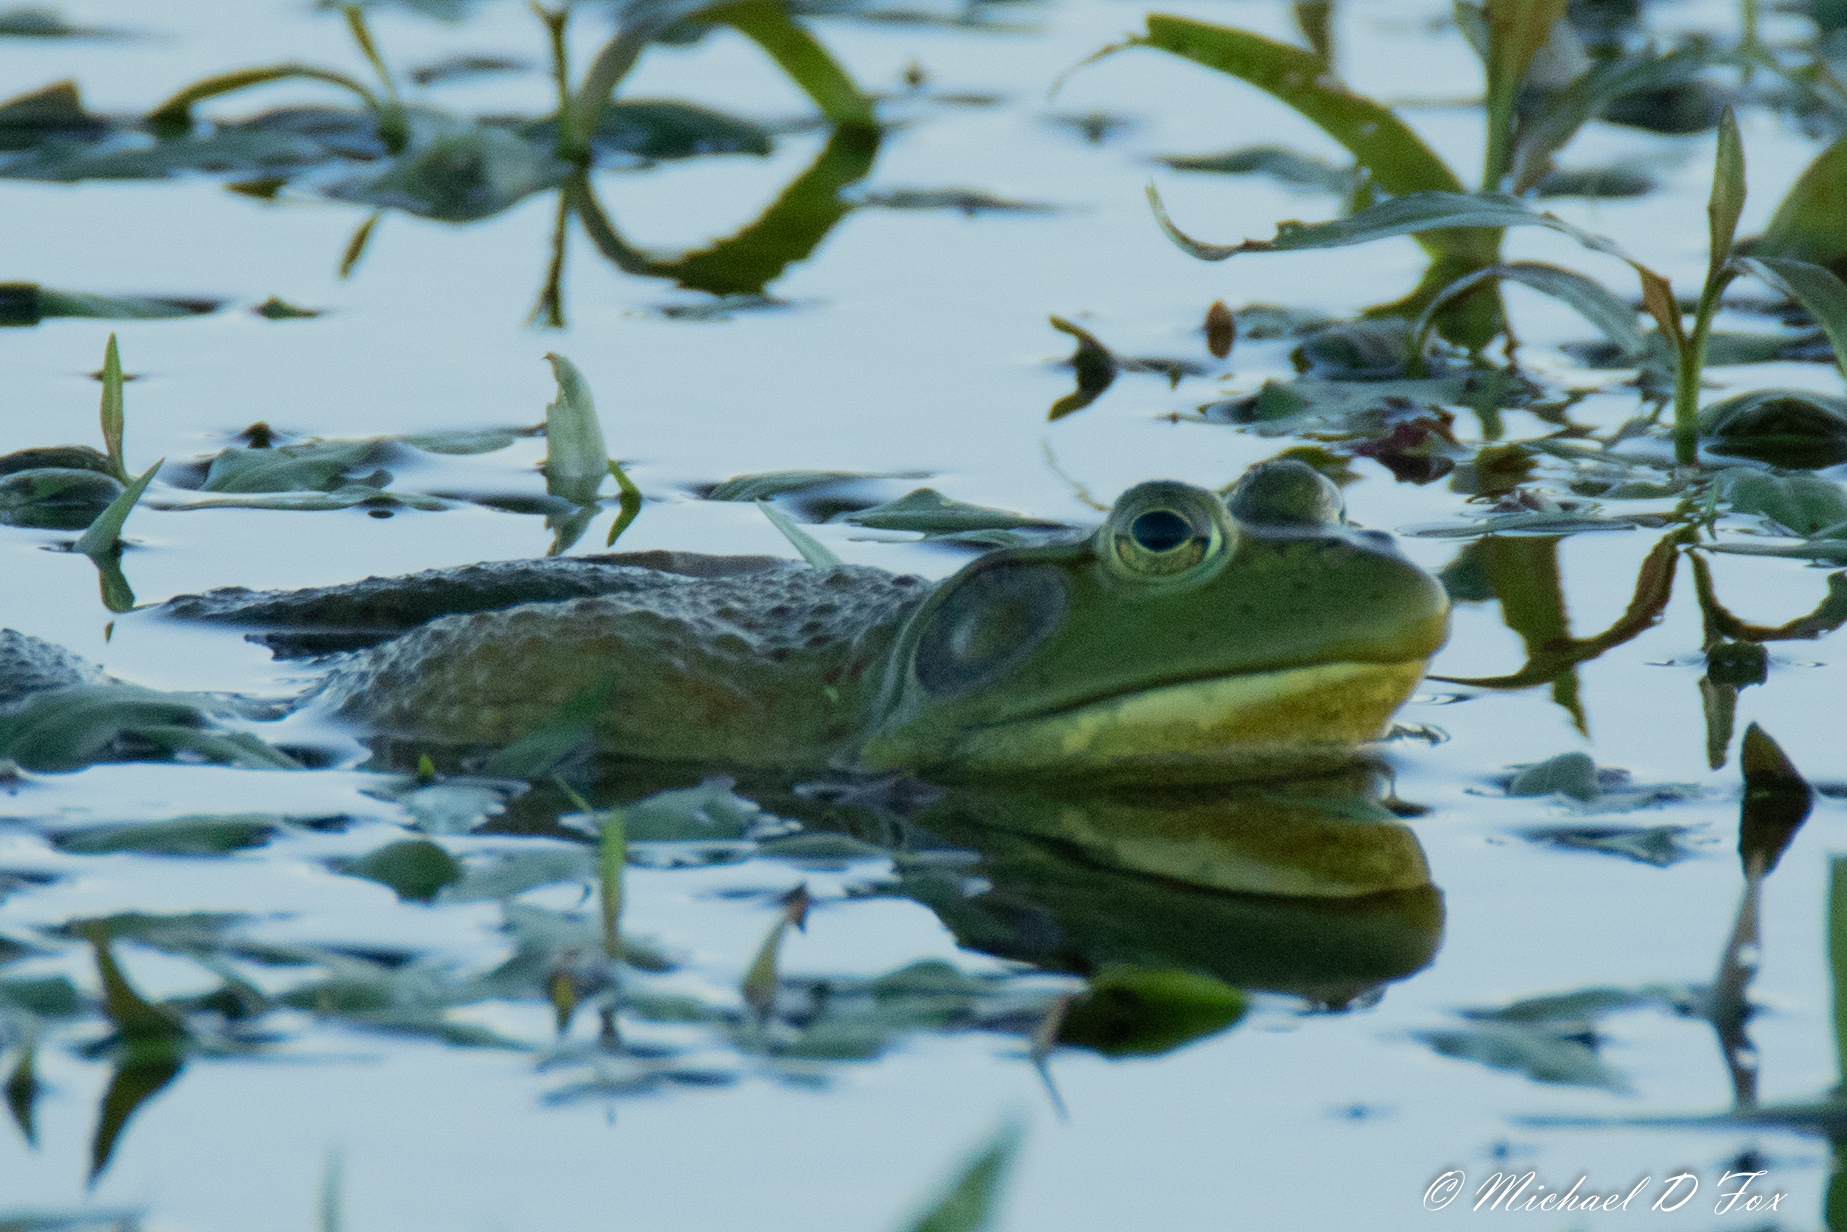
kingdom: Animalia
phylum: Chordata
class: Amphibia
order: Anura
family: Ranidae
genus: Lithobates
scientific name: Lithobates catesbeianus
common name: American bullfrog
